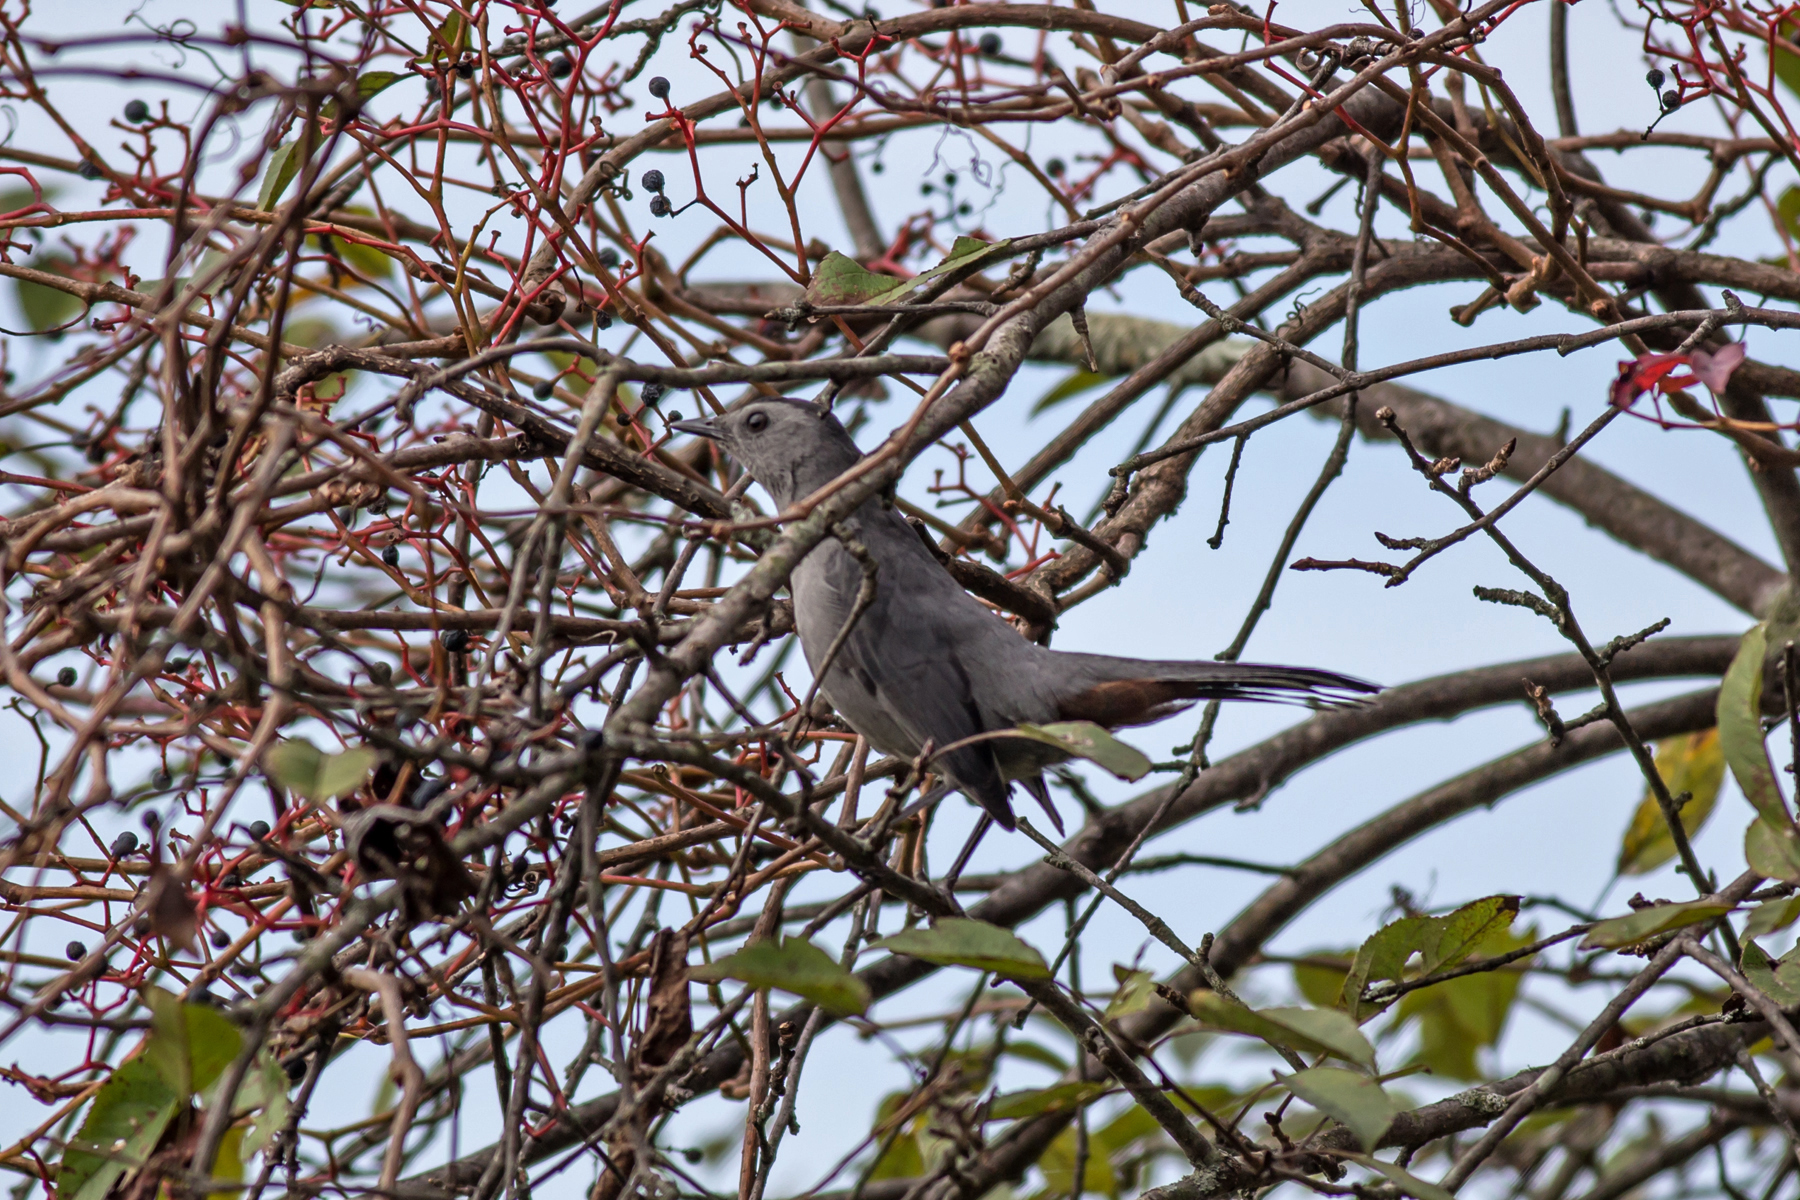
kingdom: Animalia
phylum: Chordata
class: Aves
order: Passeriformes
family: Mimidae
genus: Dumetella
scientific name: Dumetella carolinensis
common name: Gray catbird
